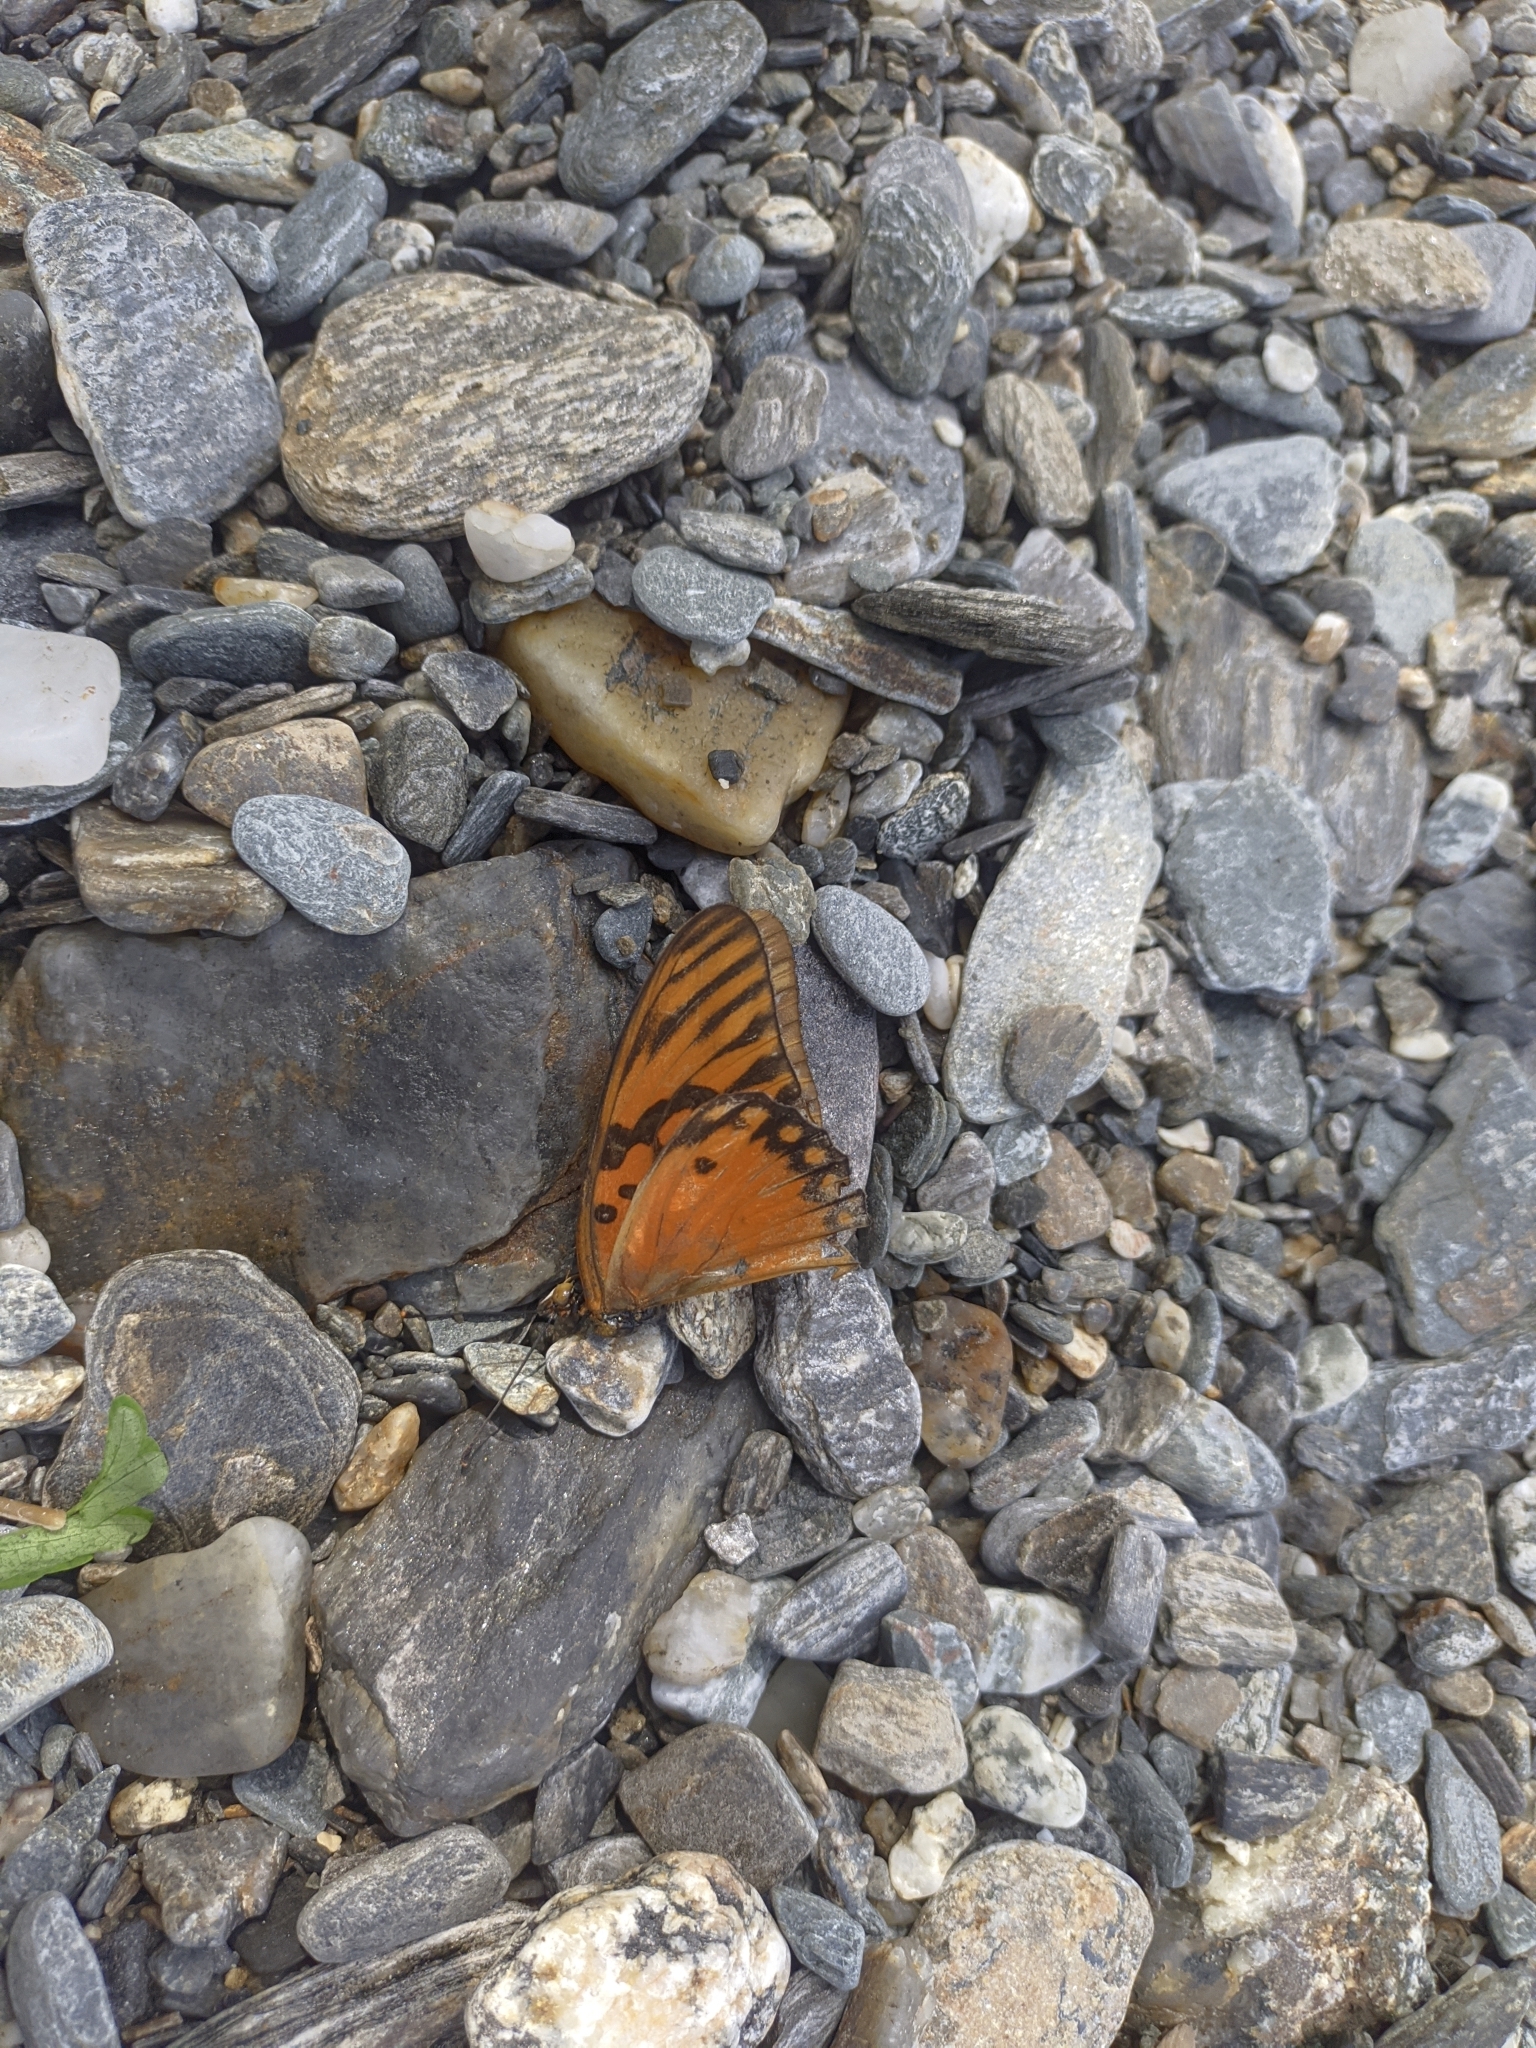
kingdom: Animalia
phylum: Arthropoda
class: Insecta
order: Lepidoptera
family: Nymphalidae
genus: Dione
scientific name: Dione vanillae
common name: Gulf fritillary
